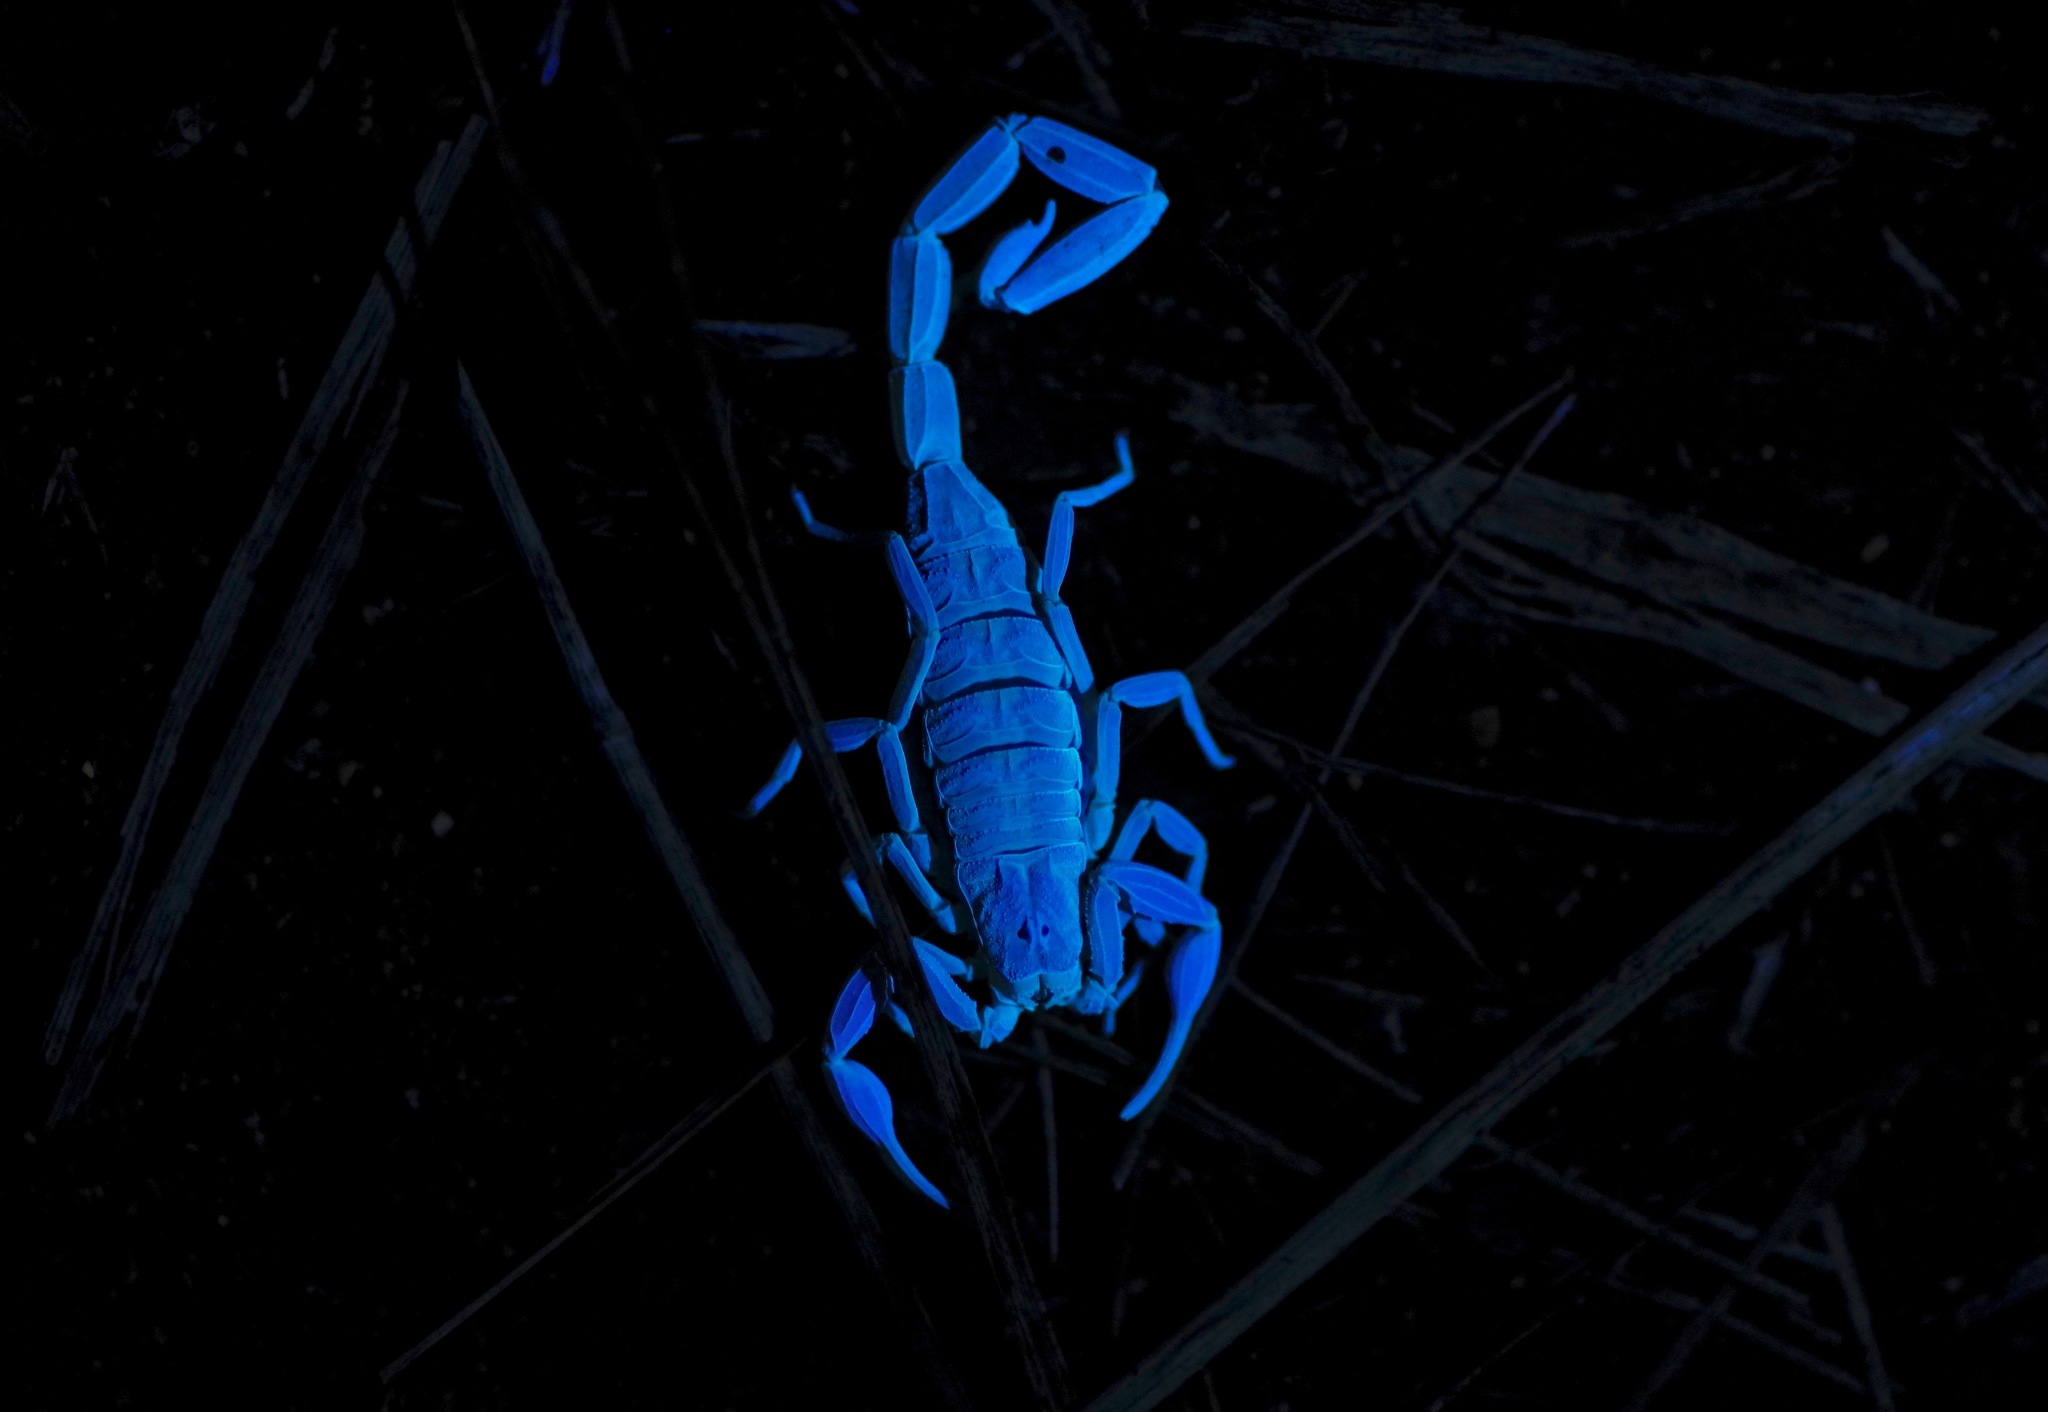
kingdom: Animalia
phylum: Arthropoda
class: Arachnida
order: Scorpiones
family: Buthidae
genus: Centruroides
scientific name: Centruroides vittatus
